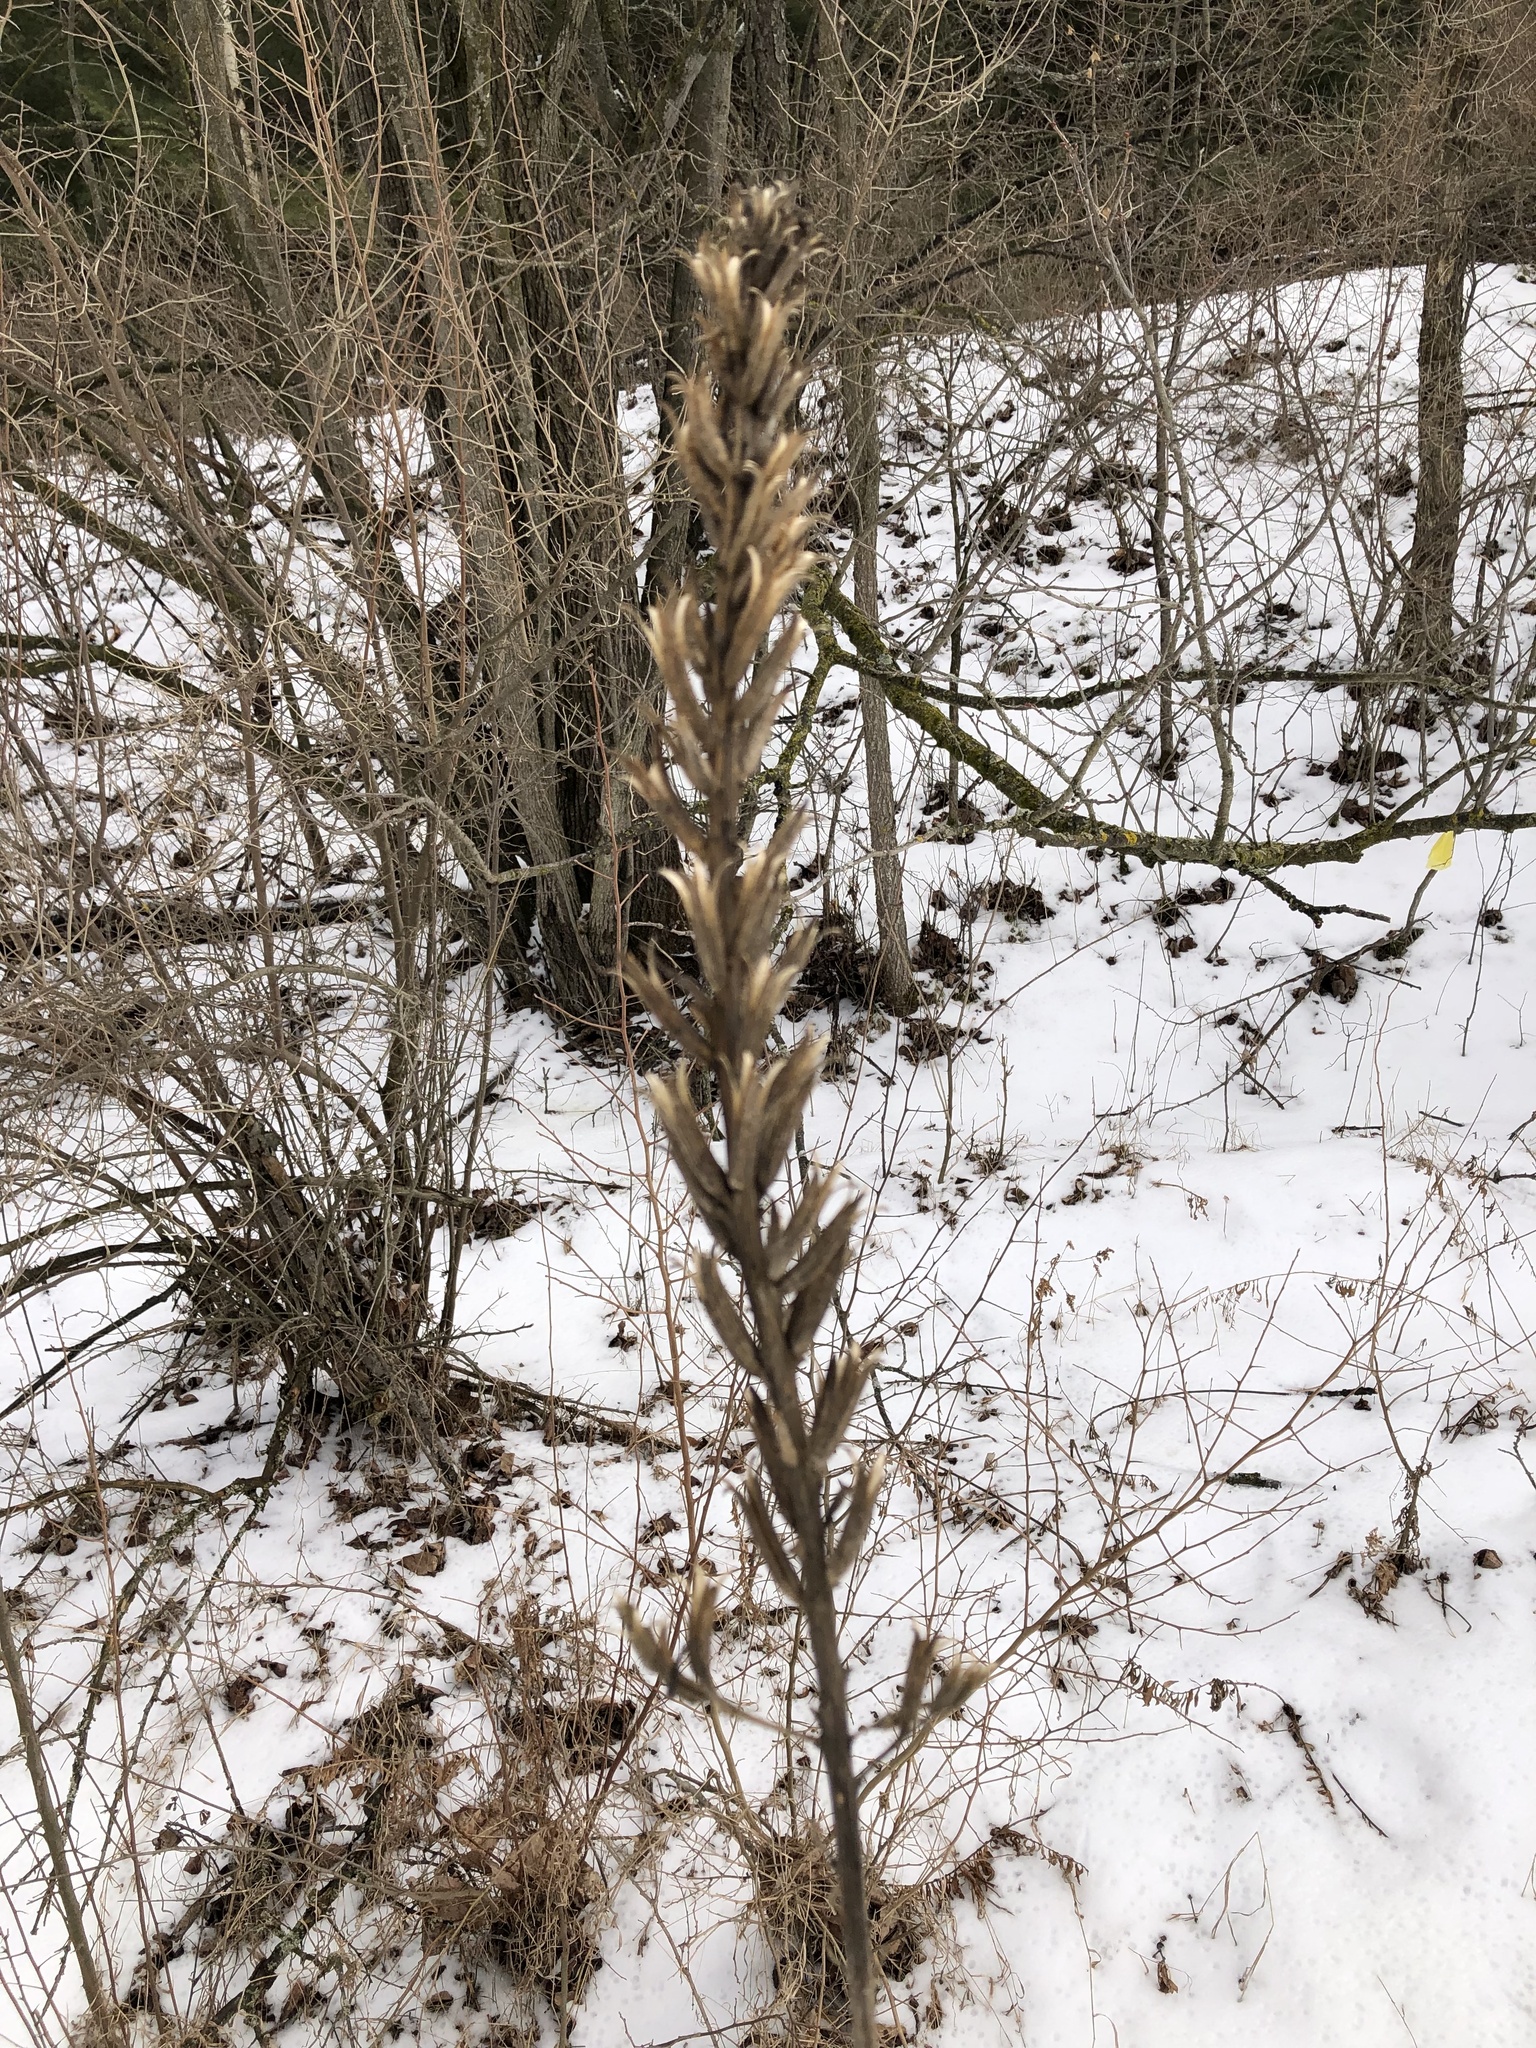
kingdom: Plantae
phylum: Tracheophyta
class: Magnoliopsida
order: Myrtales
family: Onagraceae
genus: Oenothera
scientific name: Oenothera biennis
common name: Common evening-primrose
